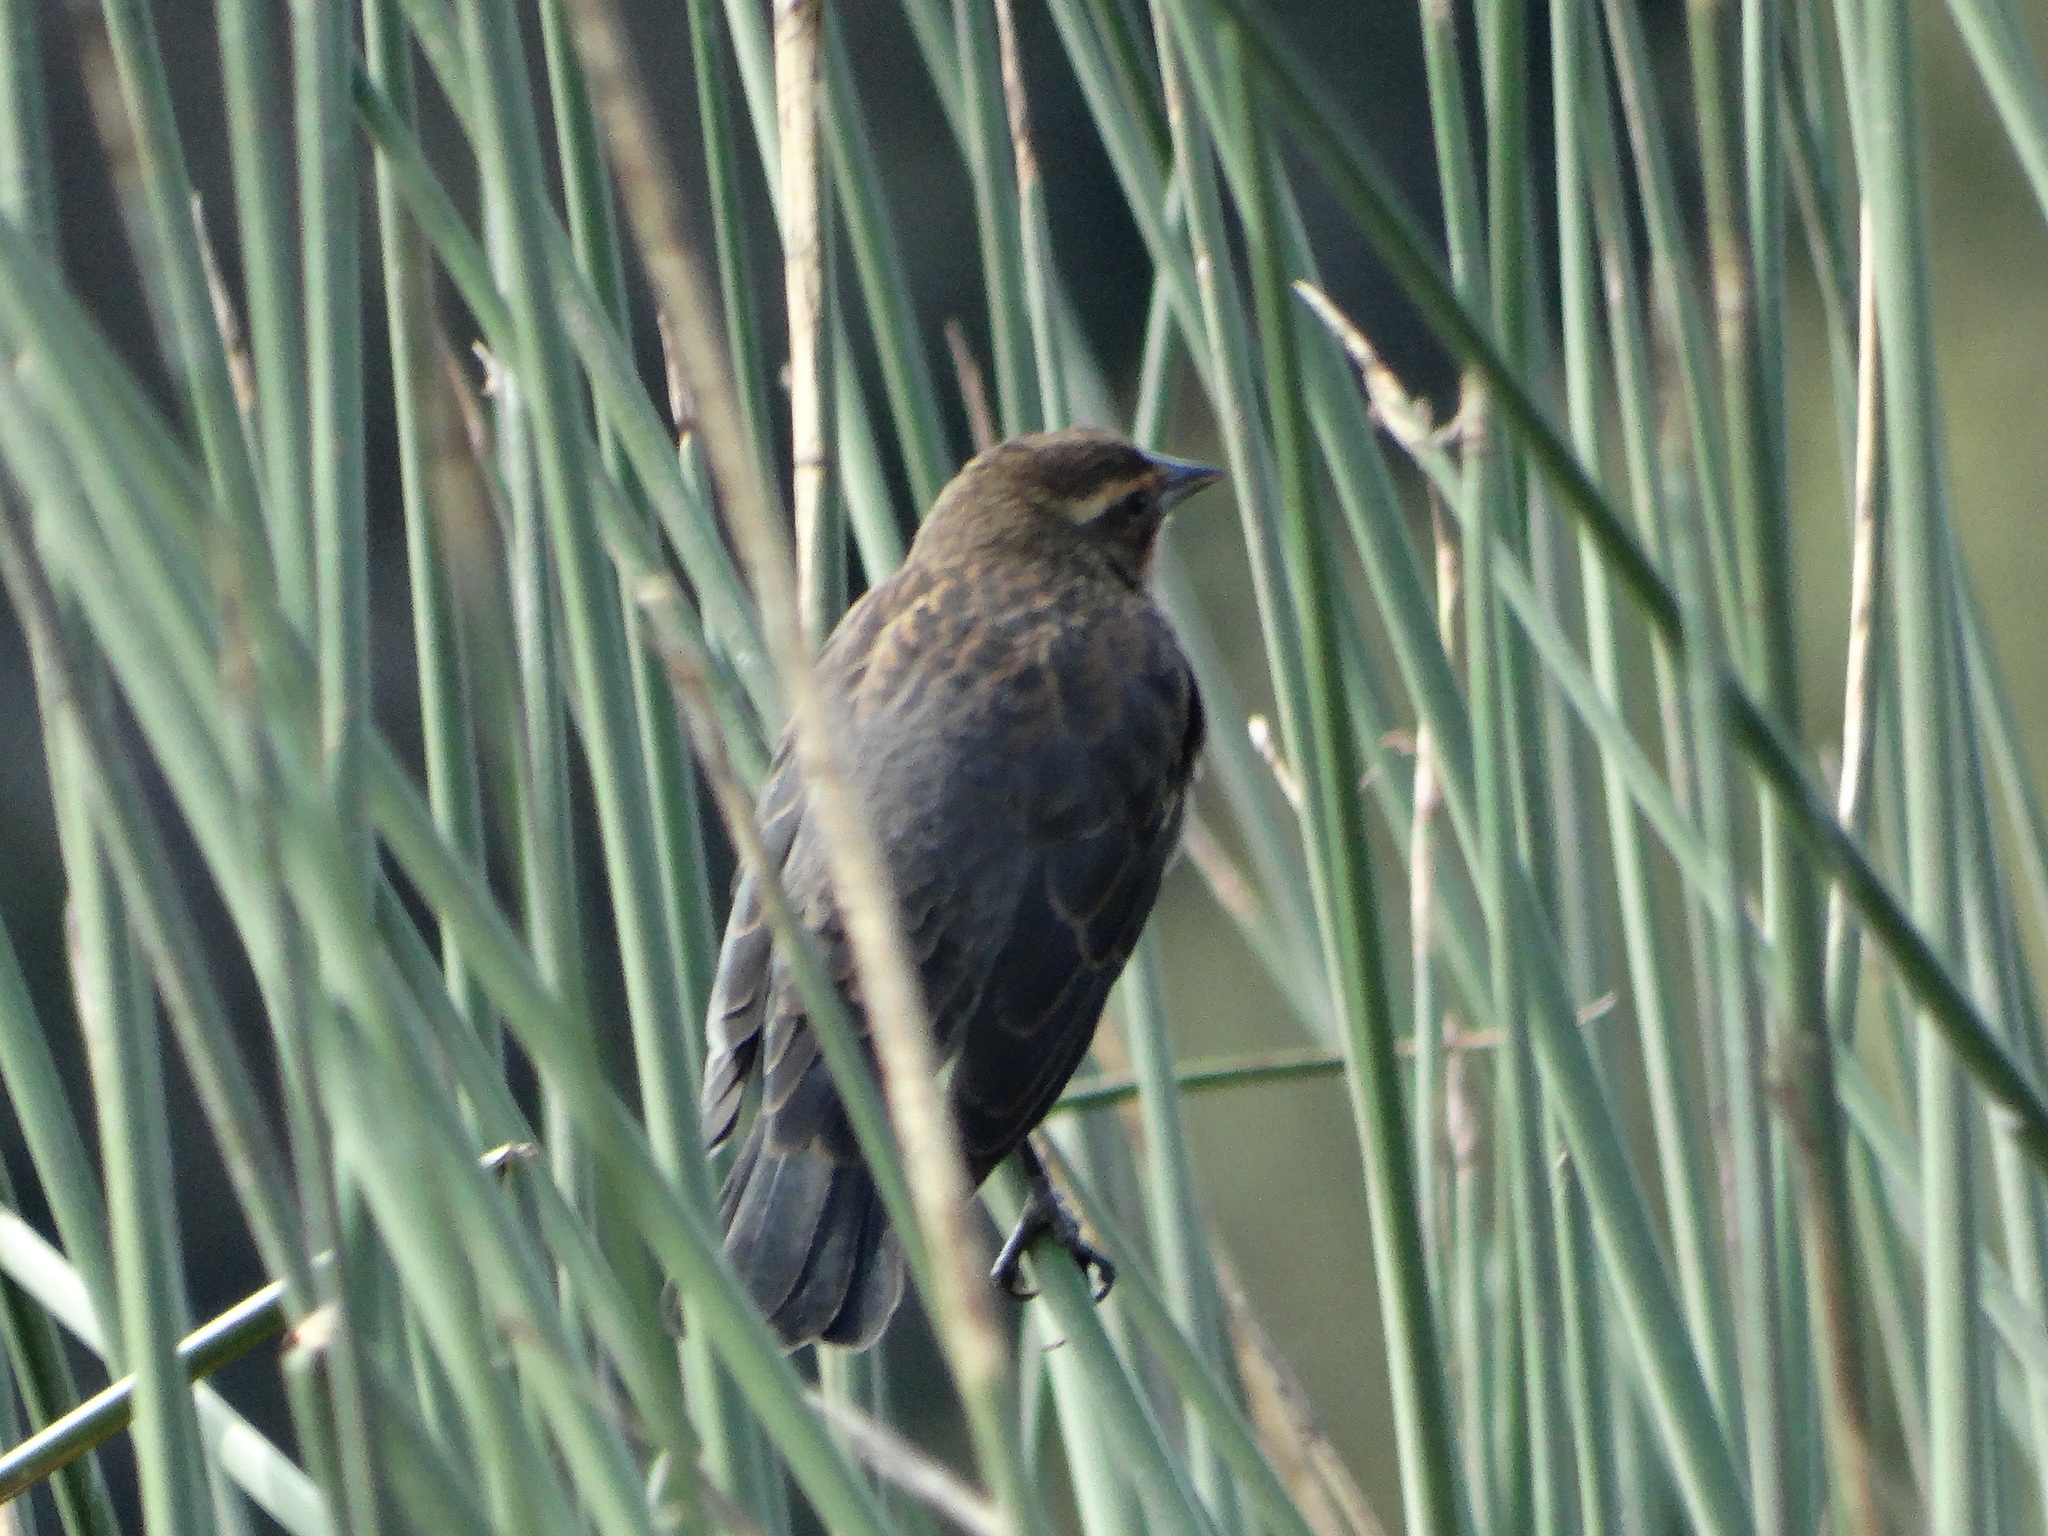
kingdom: Animalia
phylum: Chordata
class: Aves
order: Passeriformes
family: Icteridae
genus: Agelaius
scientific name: Agelaius phoeniceus
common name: Red-winged blackbird
